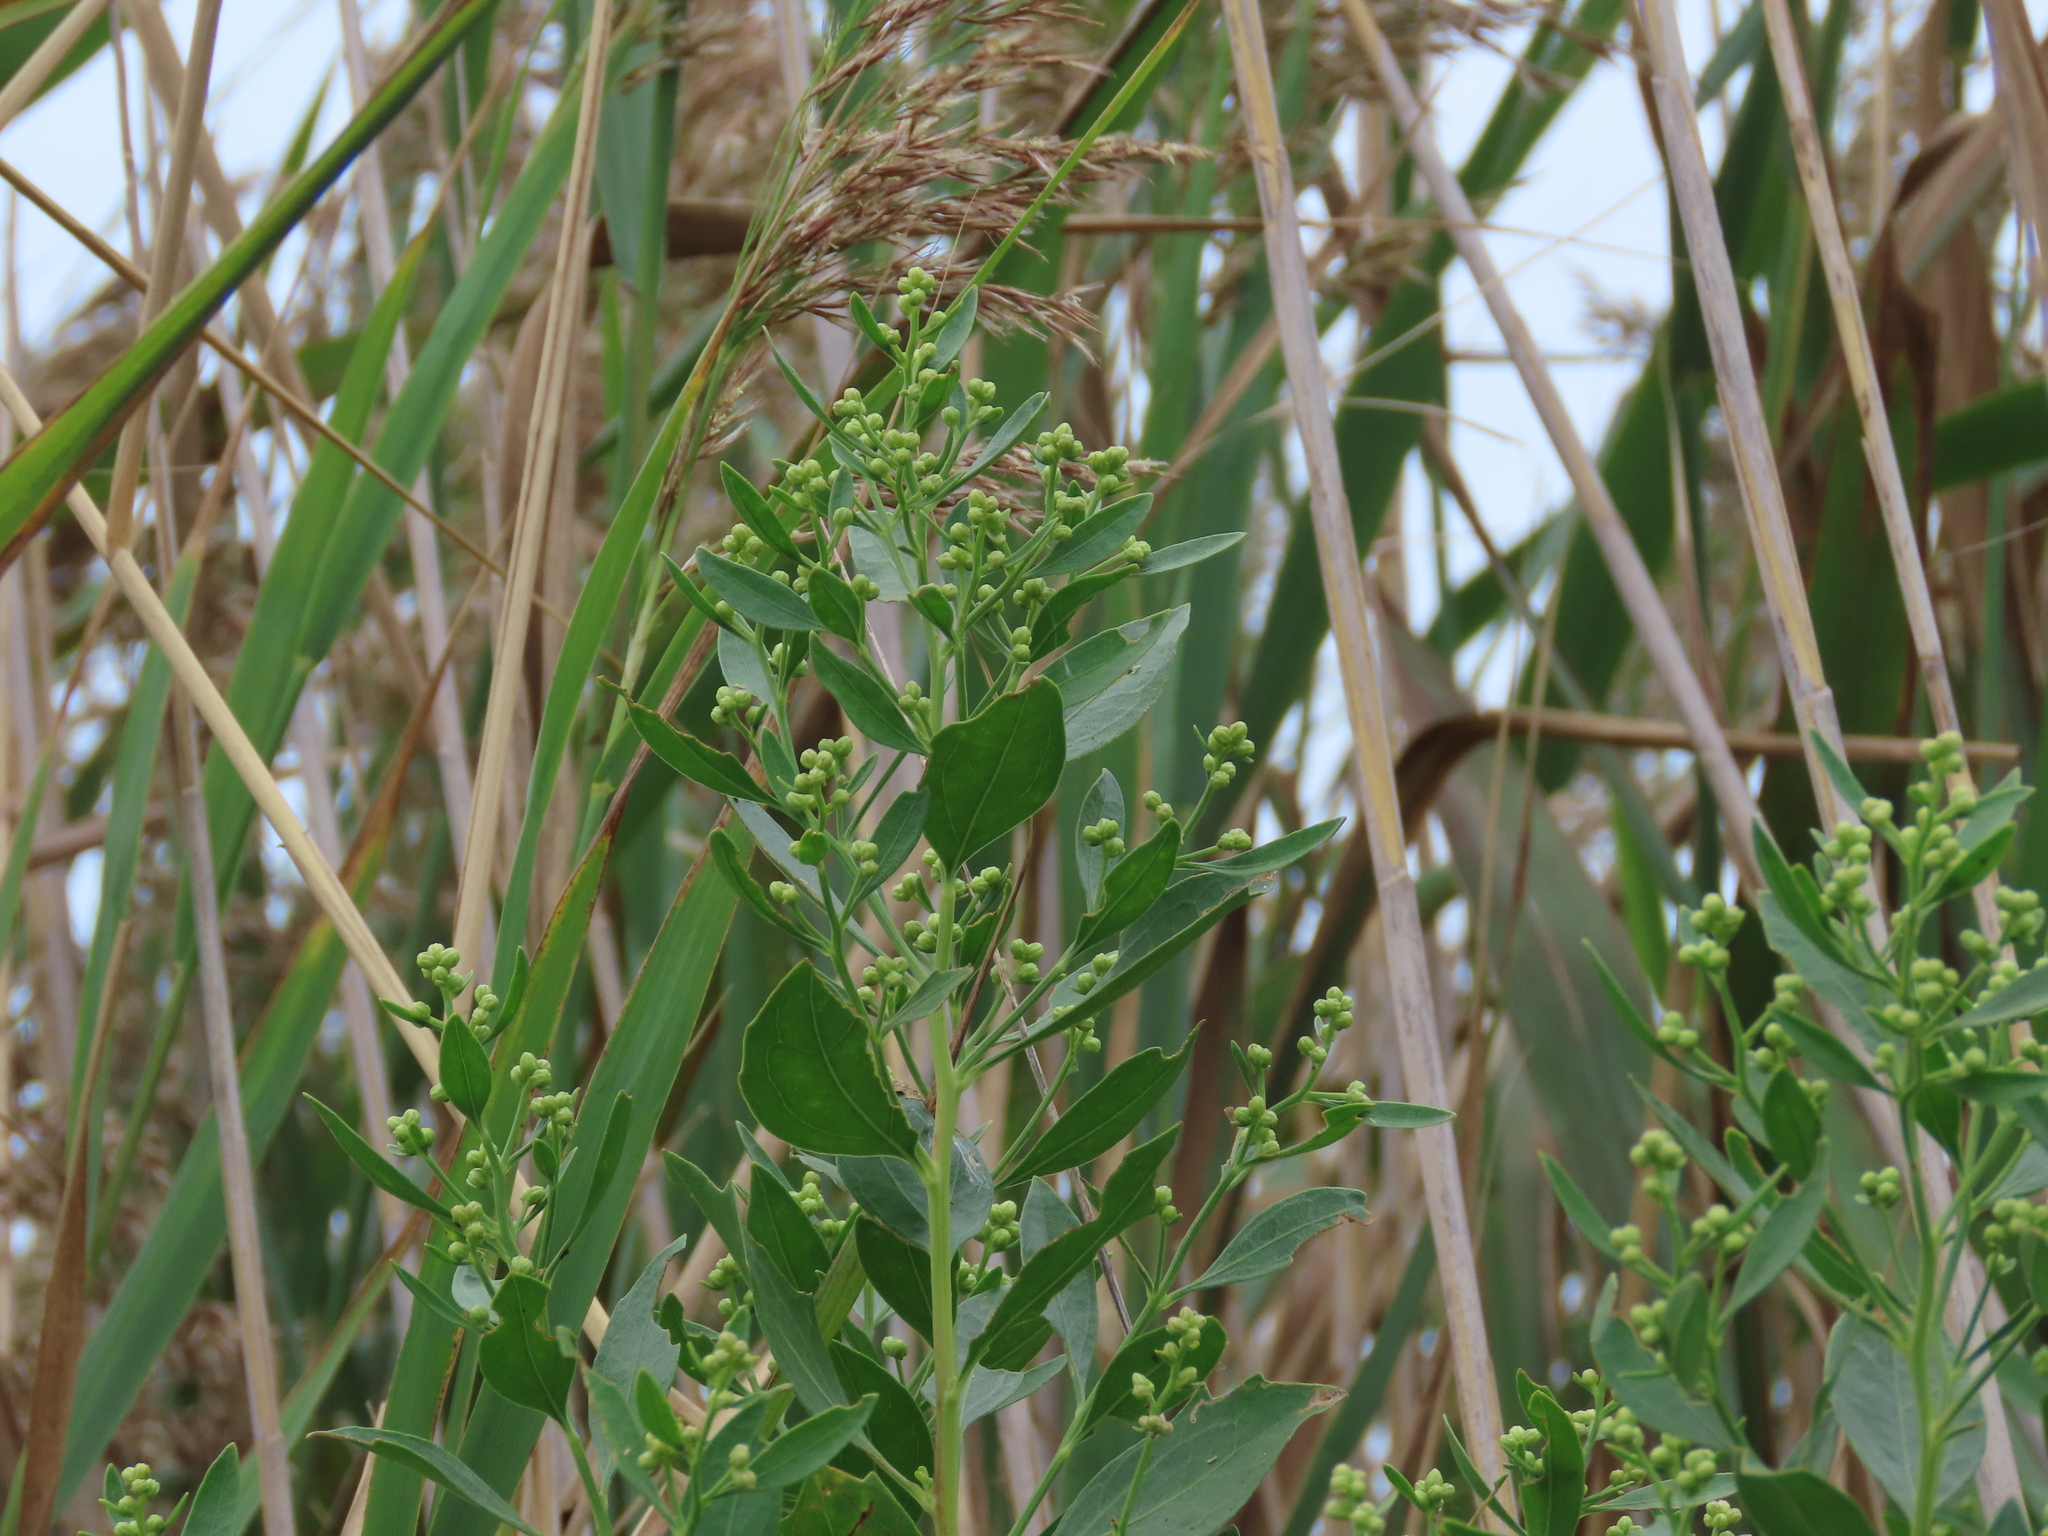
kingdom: Plantae
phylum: Tracheophyta
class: Magnoliopsida
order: Asterales
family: Asteraceae
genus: Baccharis
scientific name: Baccharis halimifolia
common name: Eastern baccharis
